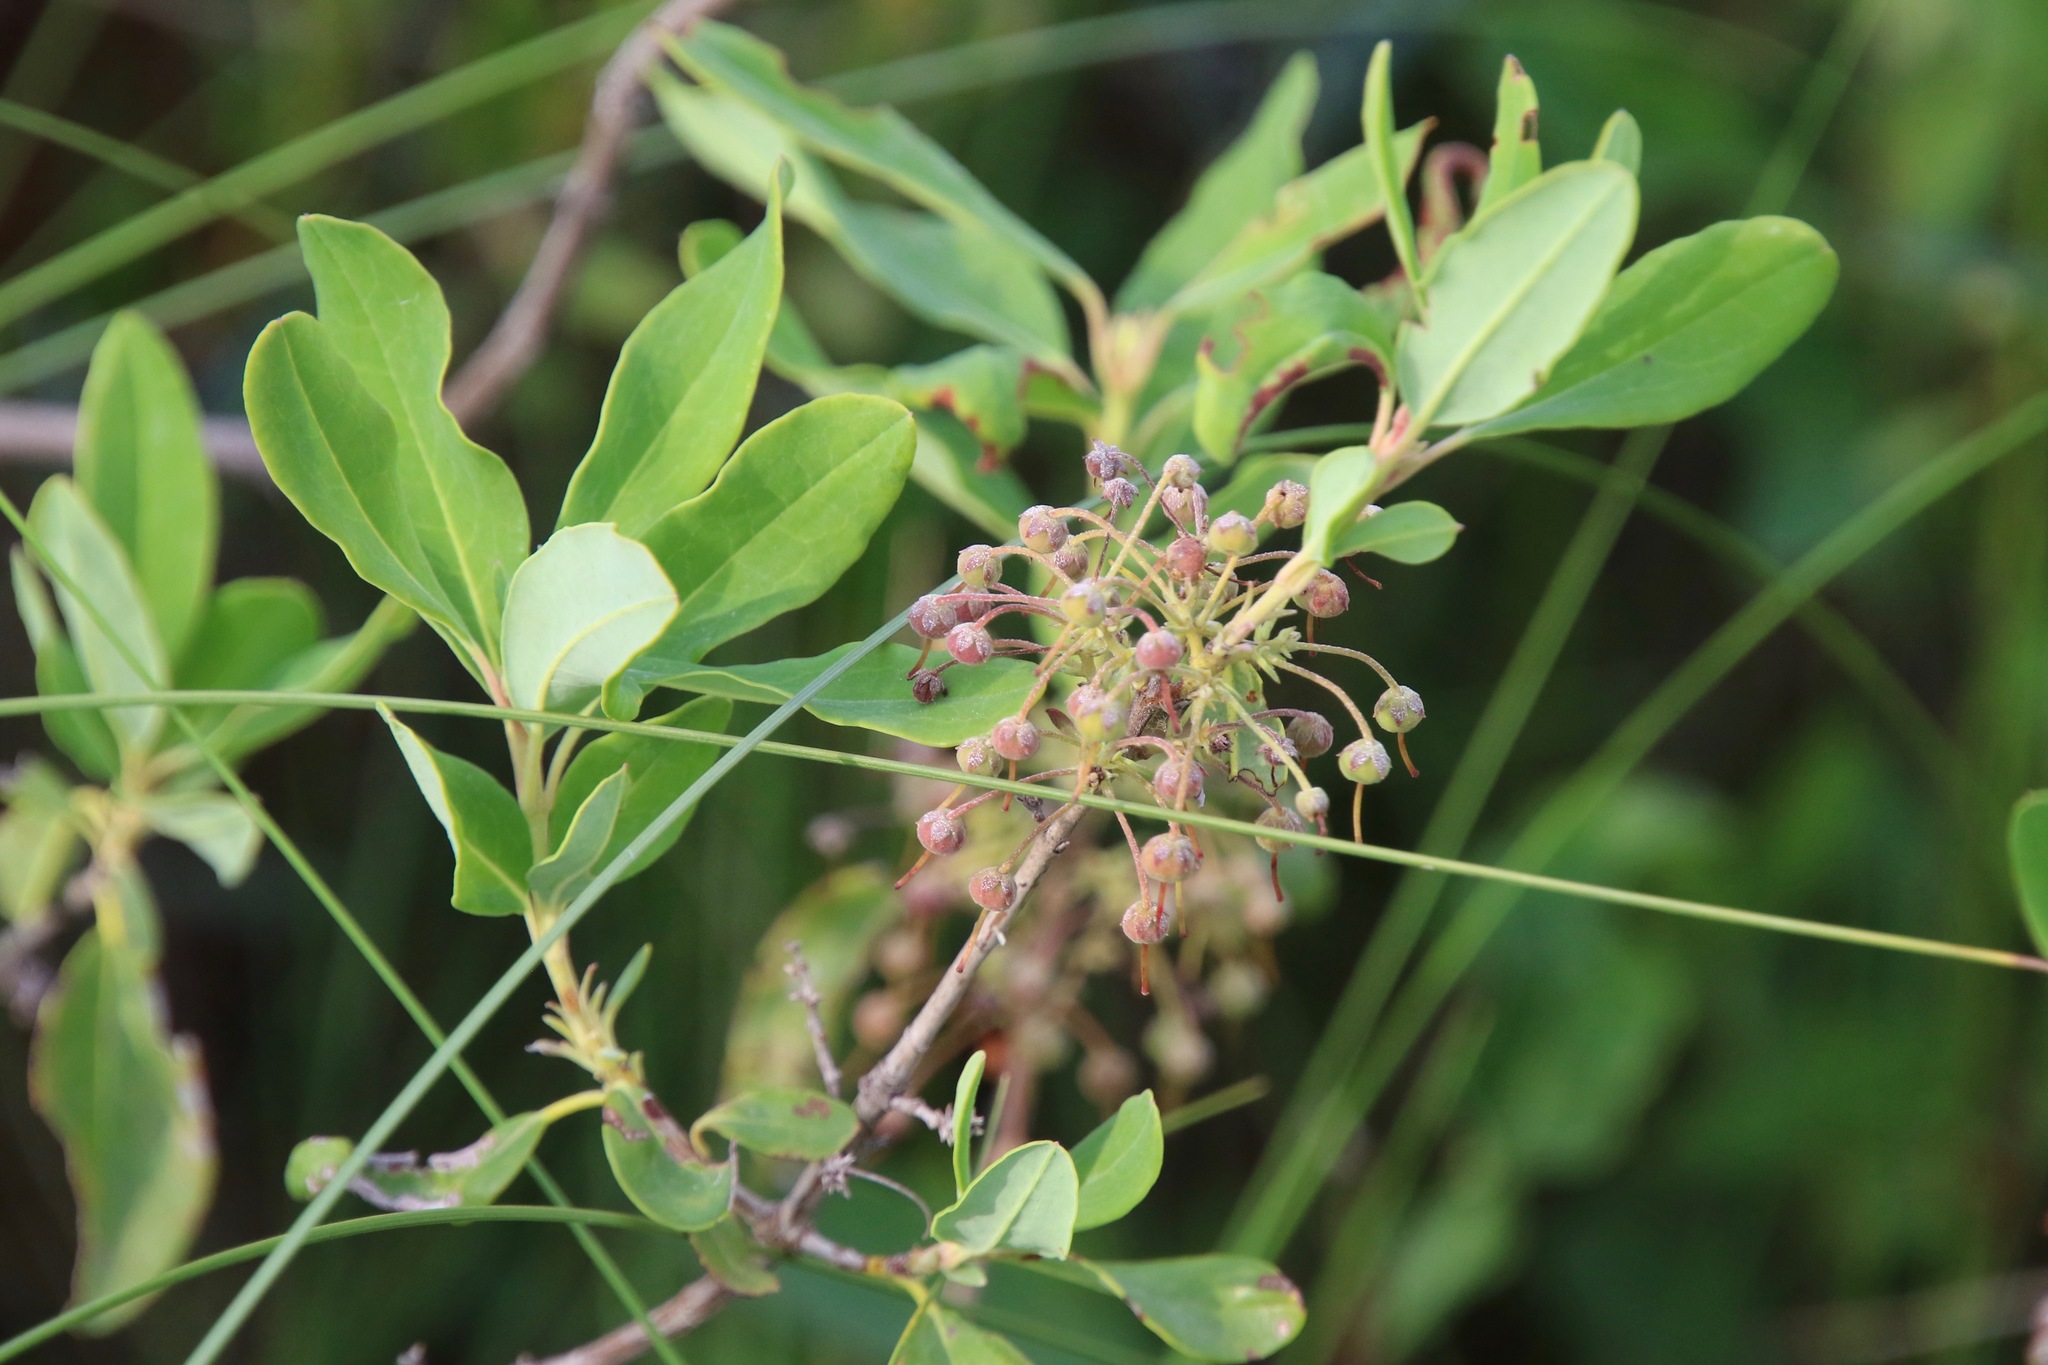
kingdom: Plantae
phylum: Tracheophyta
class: Magnoliopsida
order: Ericales
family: Ericaceae
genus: Kalmia
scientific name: Kalmia angustifolia
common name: Sheep-laurel
